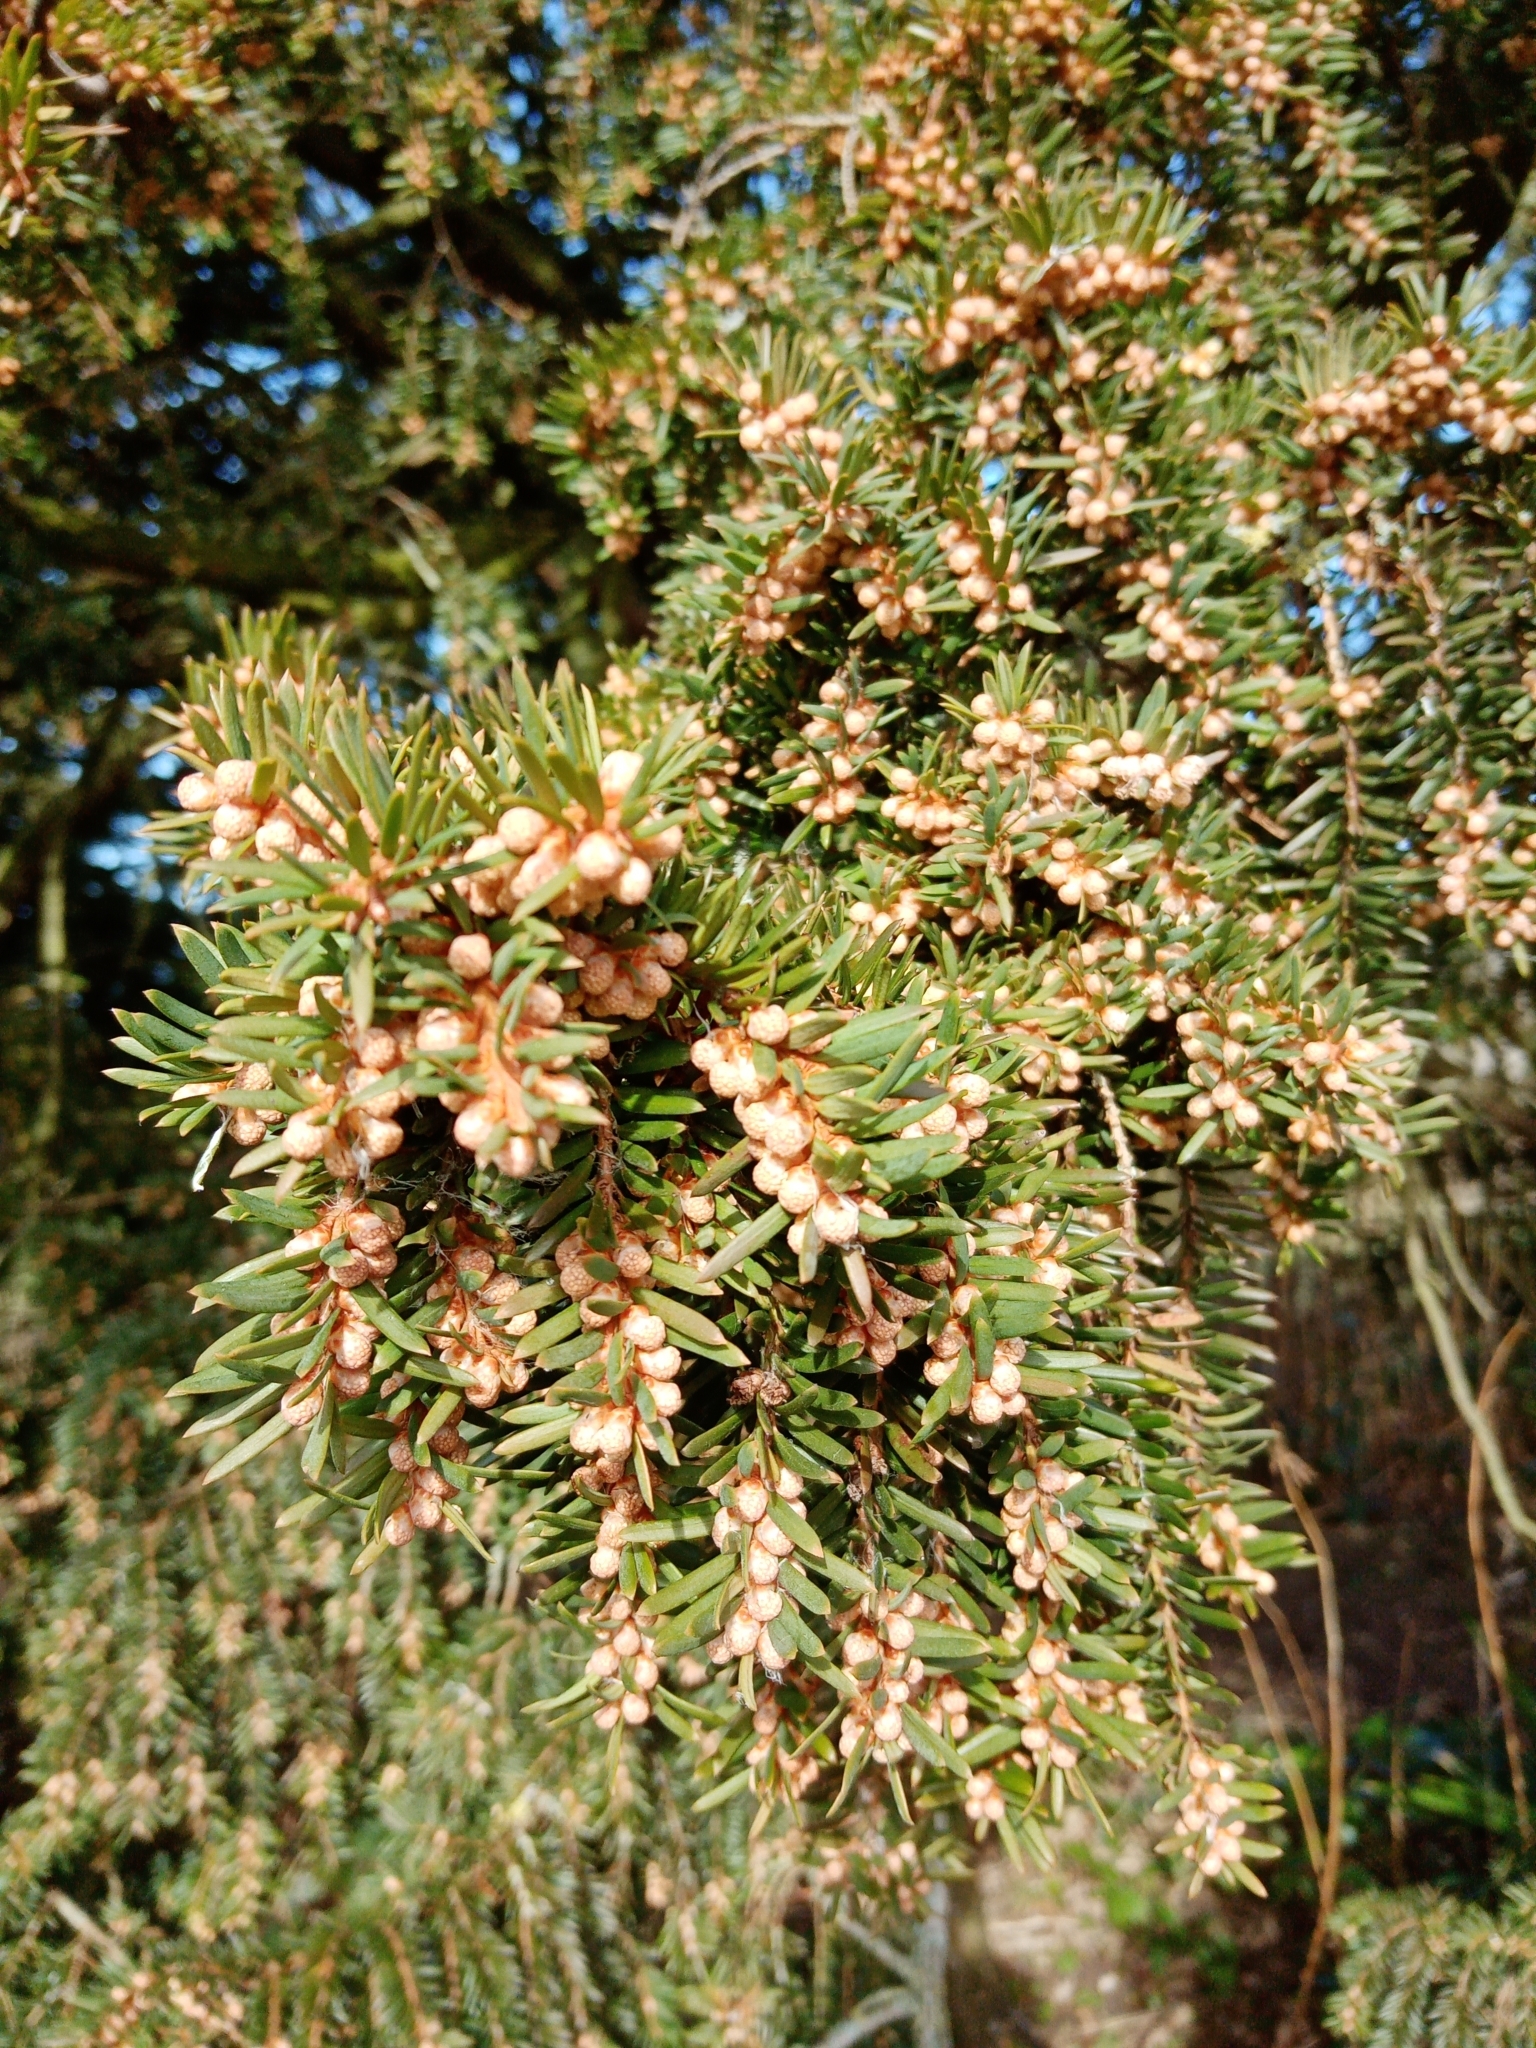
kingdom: Plantae
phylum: Tracheophyta
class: Pinopsida
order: Pinales
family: Taxaceae
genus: Taxus
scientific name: Taxus baccata
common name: Yew
